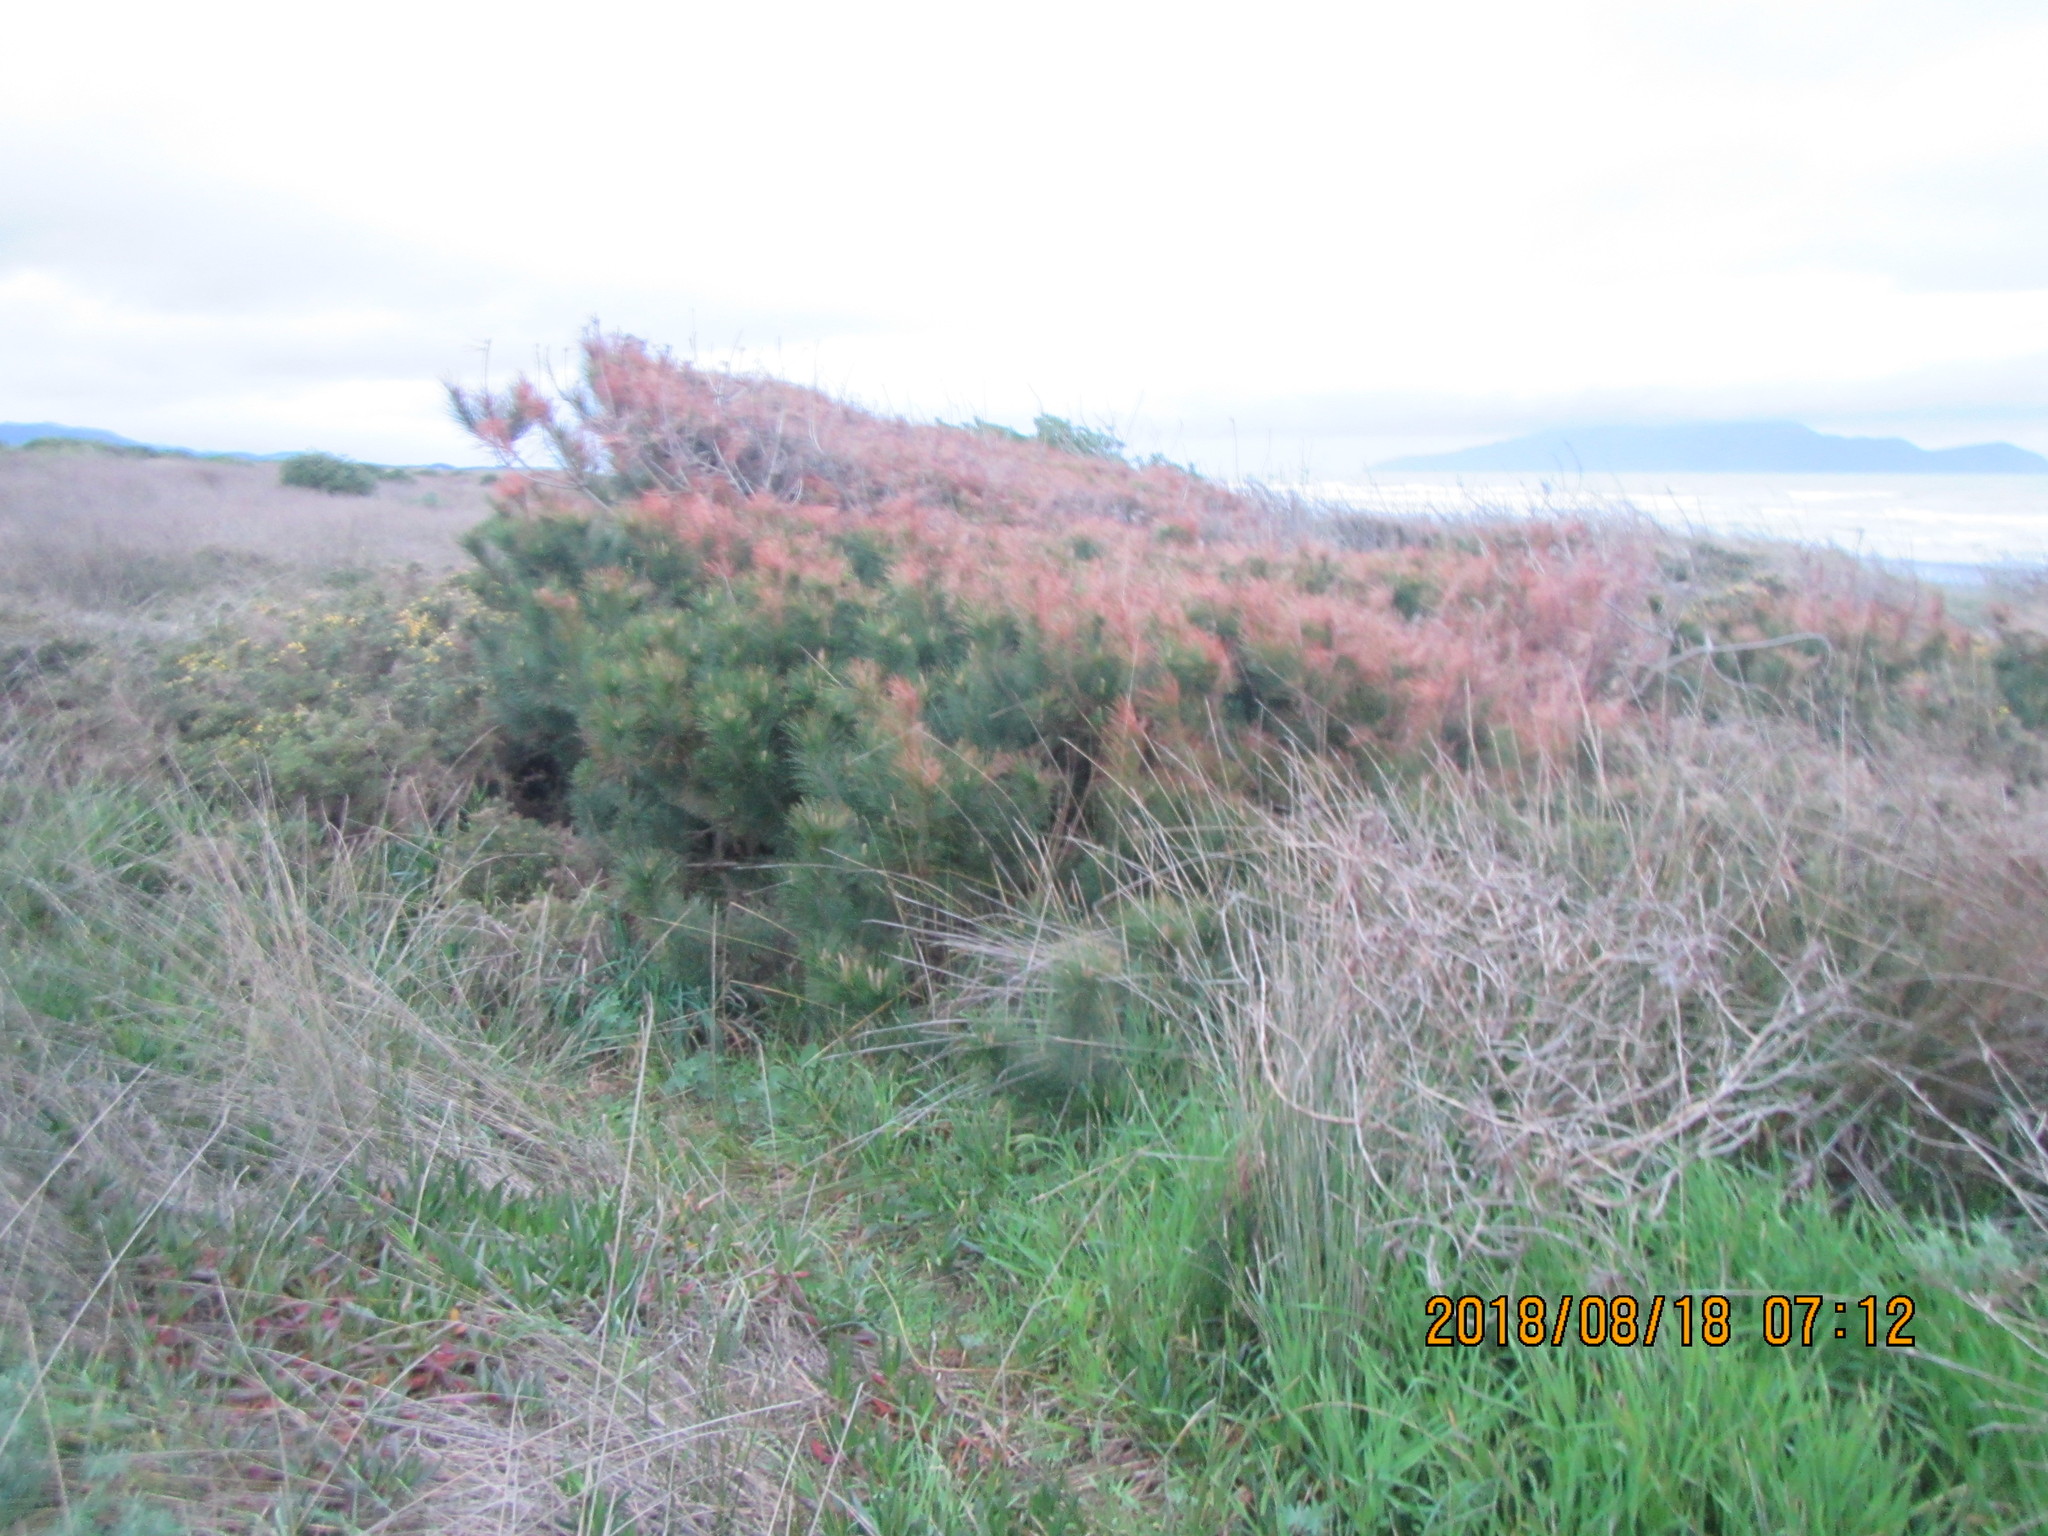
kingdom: Plantae
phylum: Tracheophyta
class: Pinopsida
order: Pinales
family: Pinaceae
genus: Pinus
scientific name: Pinus radiata
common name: Monterey pine
